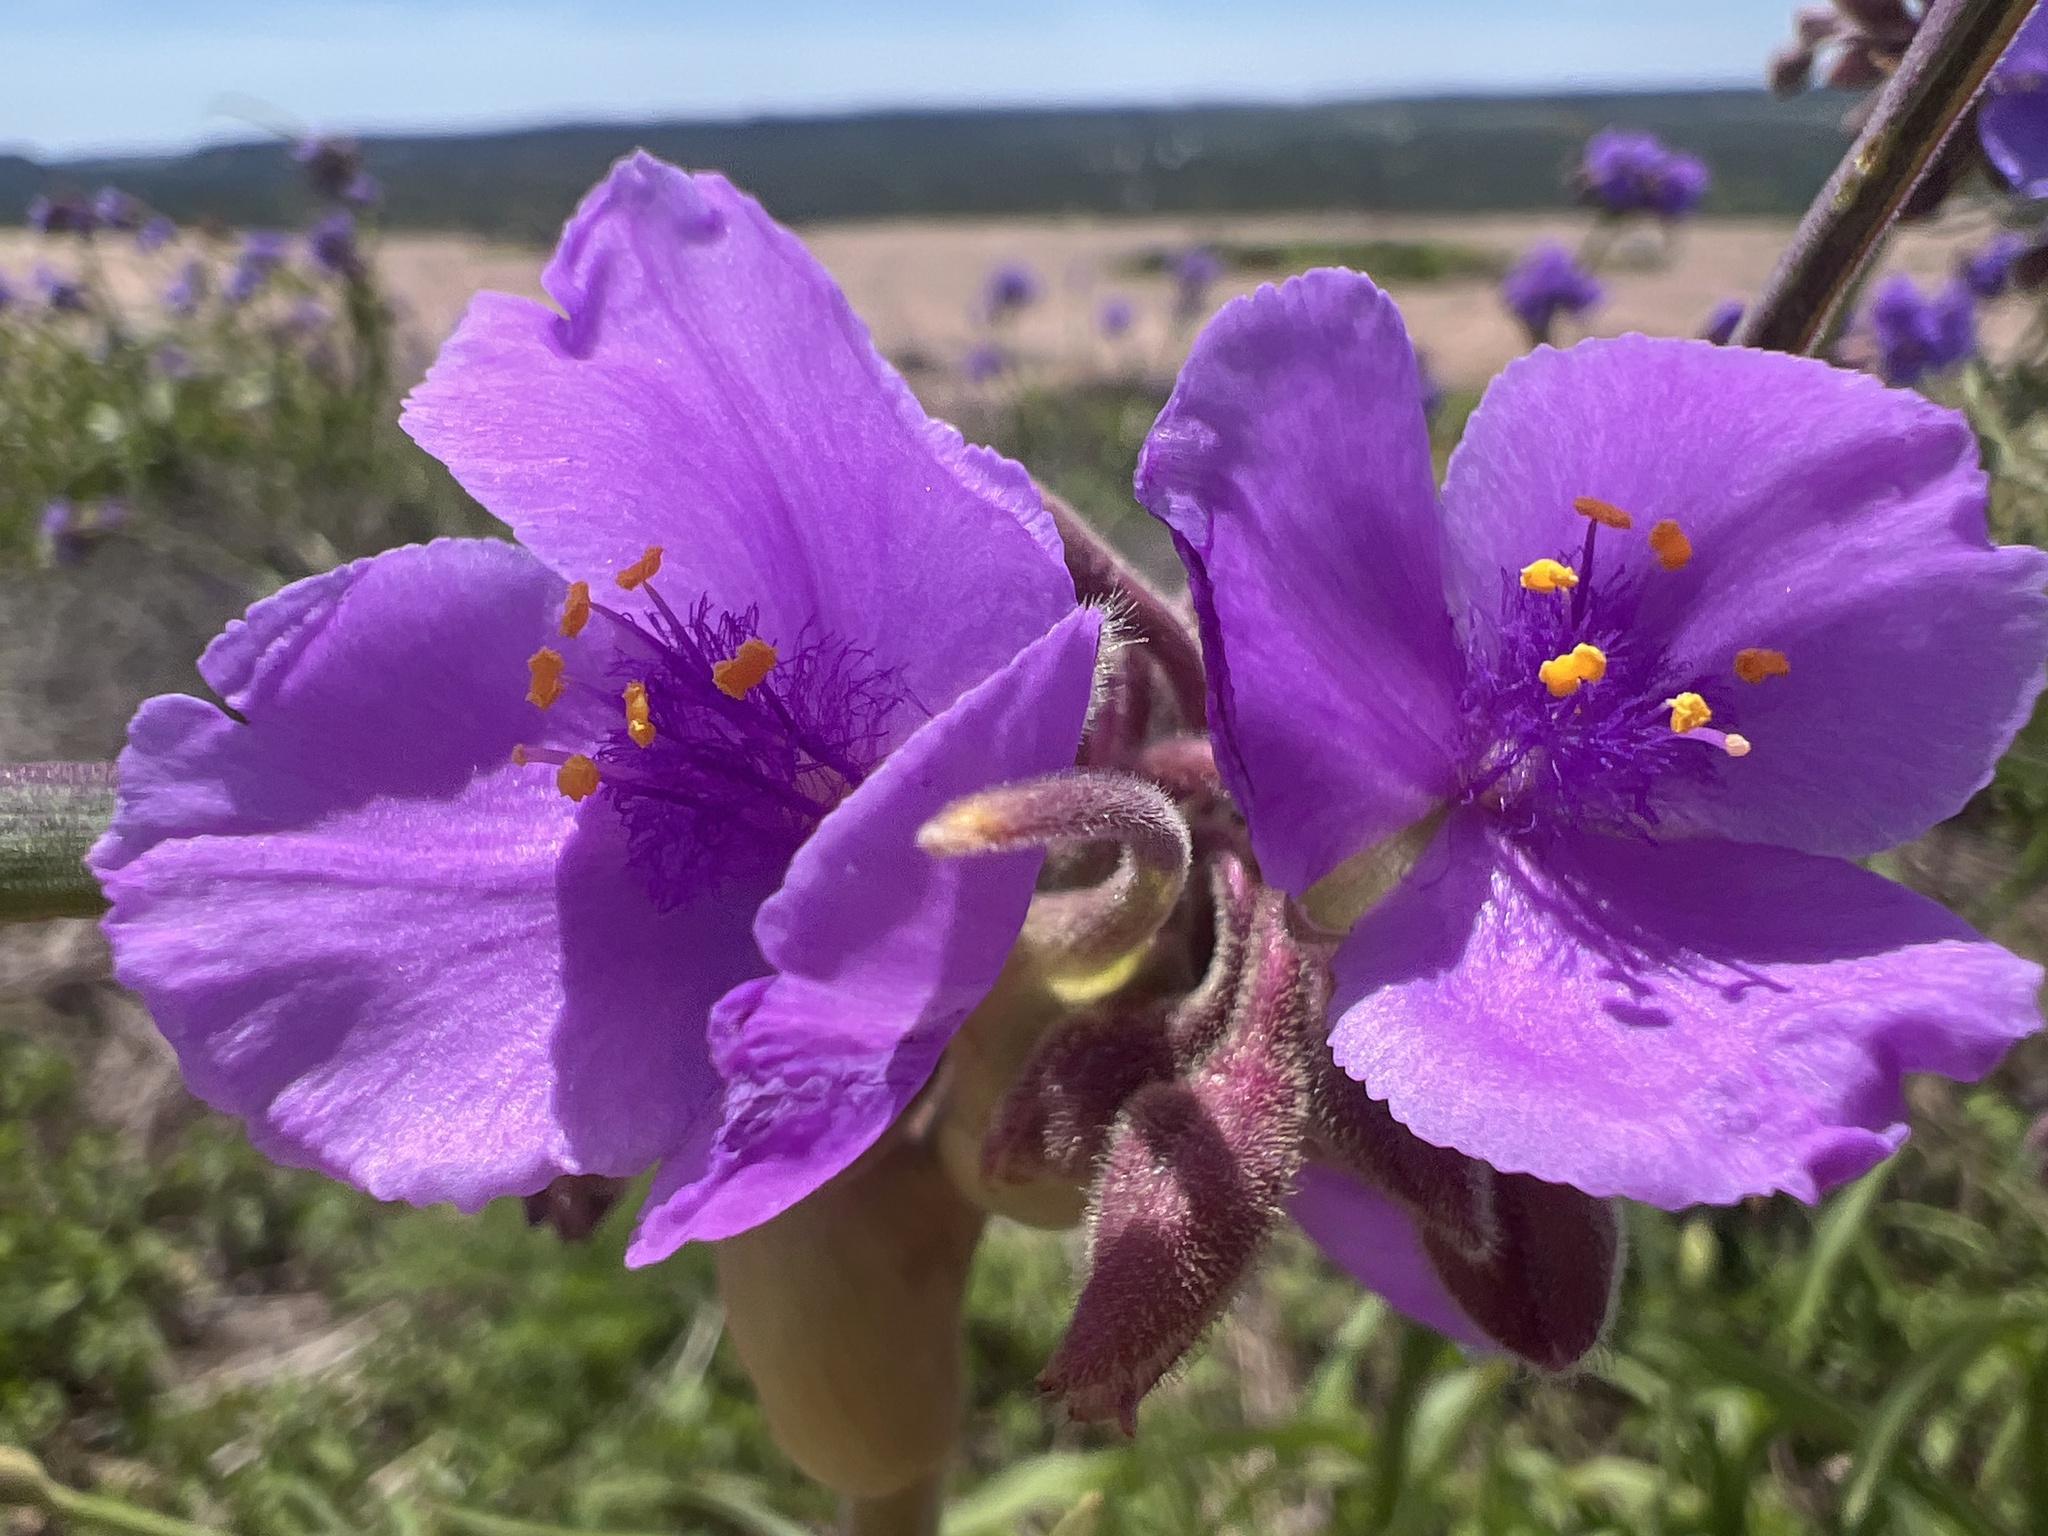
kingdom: Plantae
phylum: Tracheophyta
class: Liliopsida
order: Commelinales
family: Commelinaceae
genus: Tradescantia
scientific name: Tradescantia gigantea
